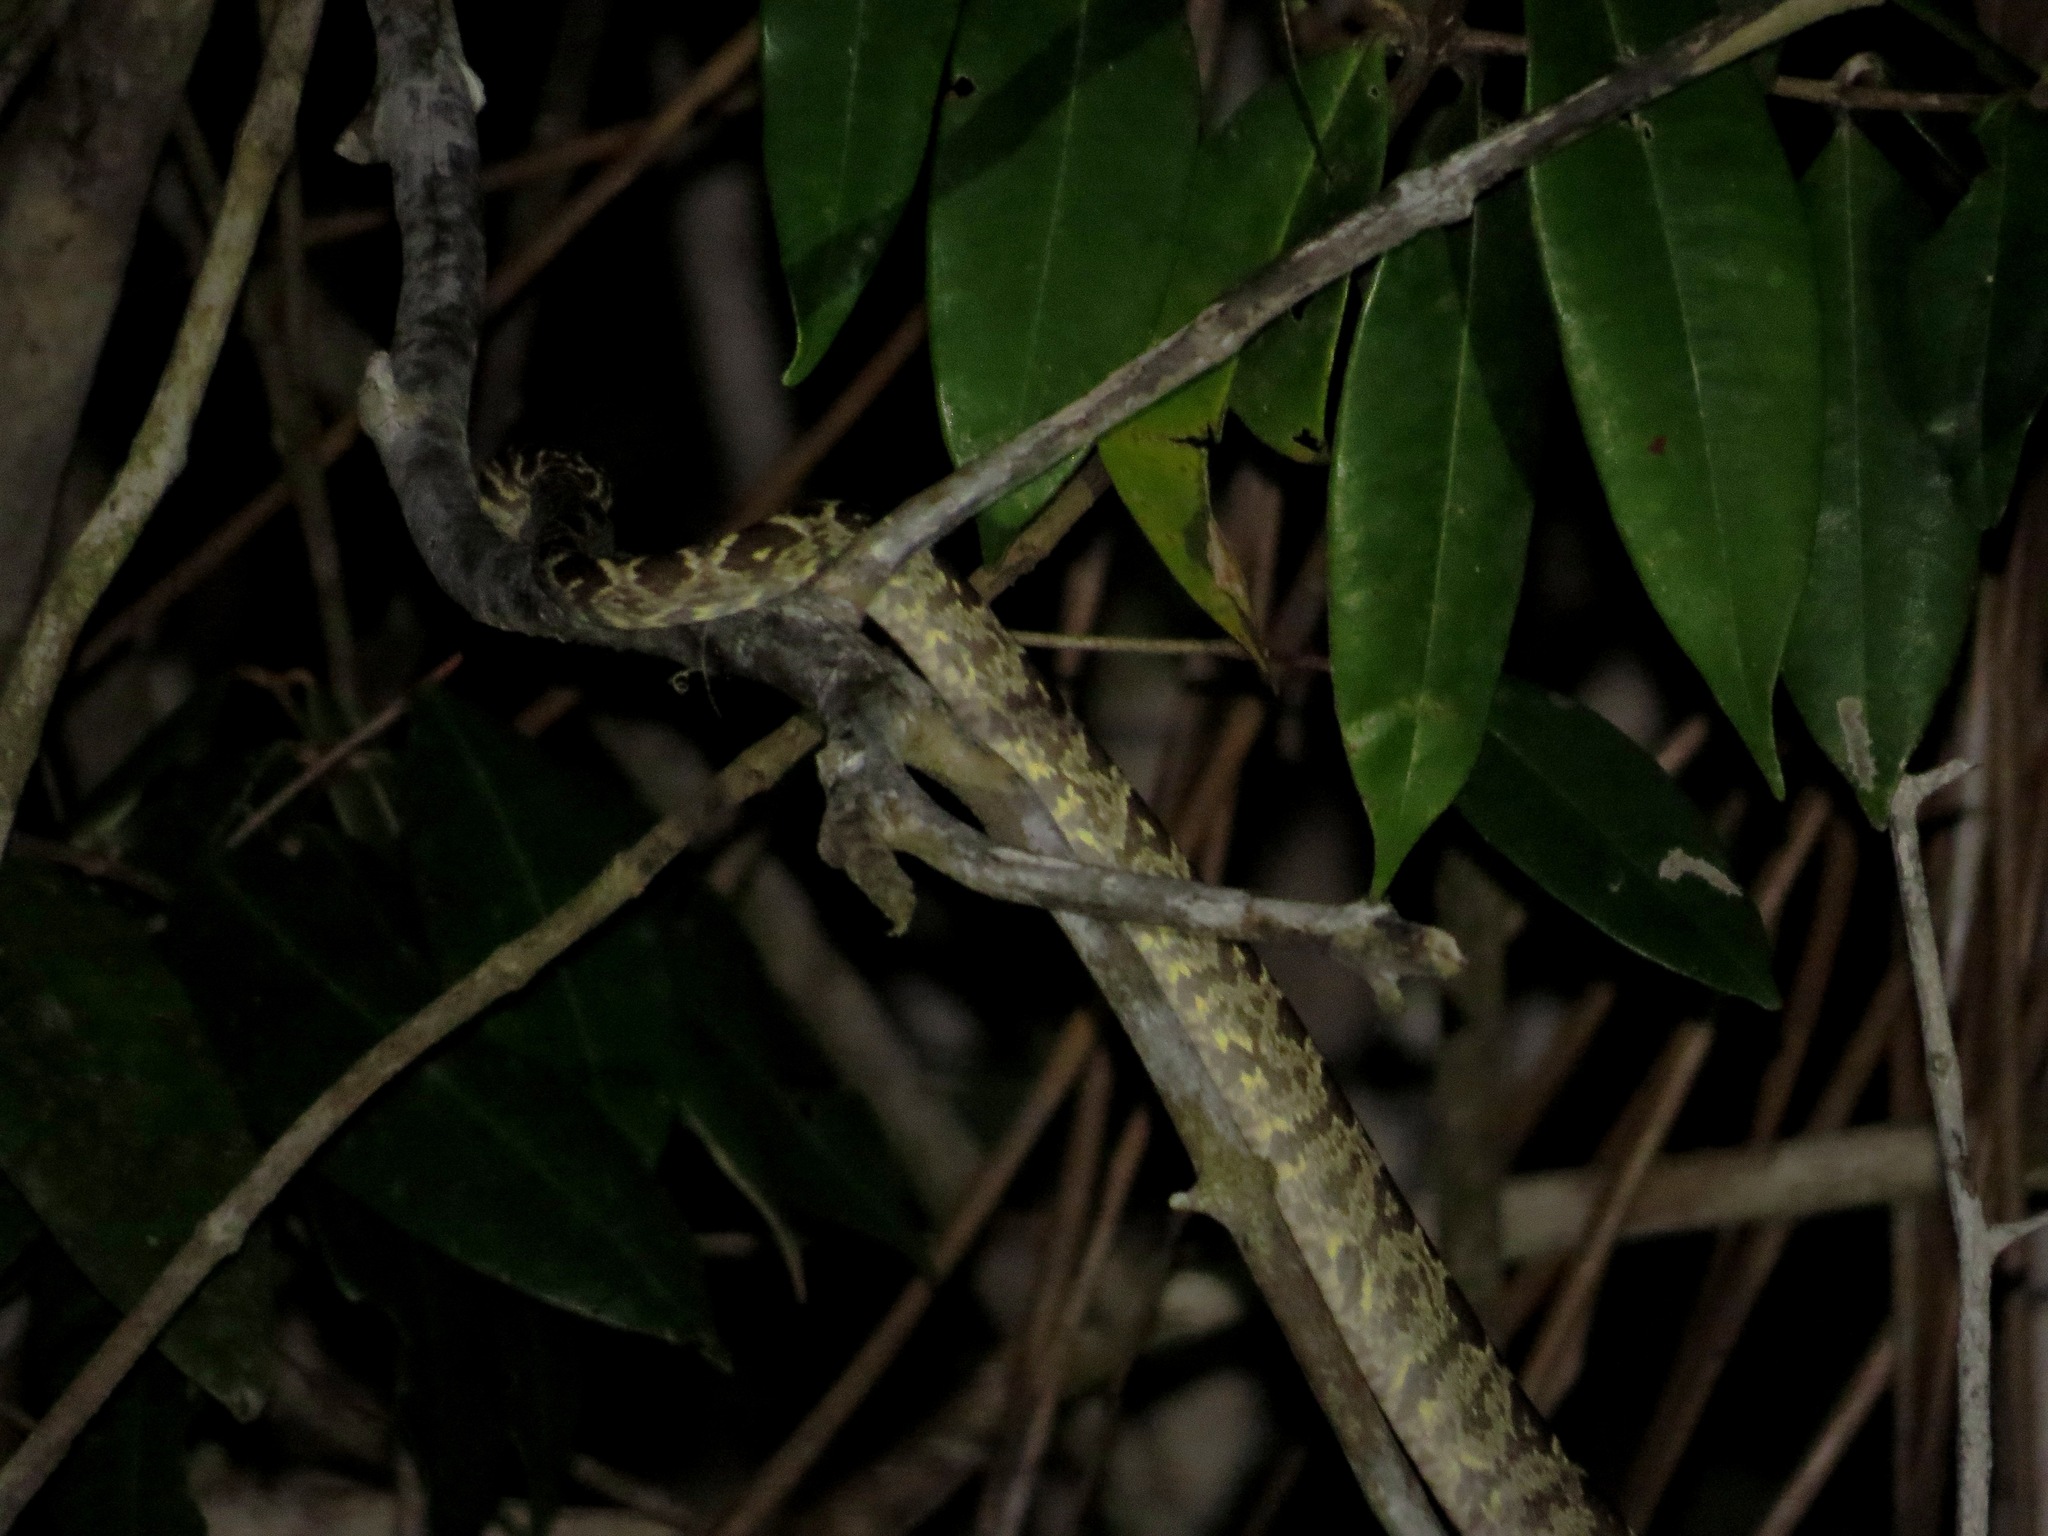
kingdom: Animalia
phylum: Chordata
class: Squamata
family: Boidae
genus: Corallus
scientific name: Corallus hortulana
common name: Garden tree boa
